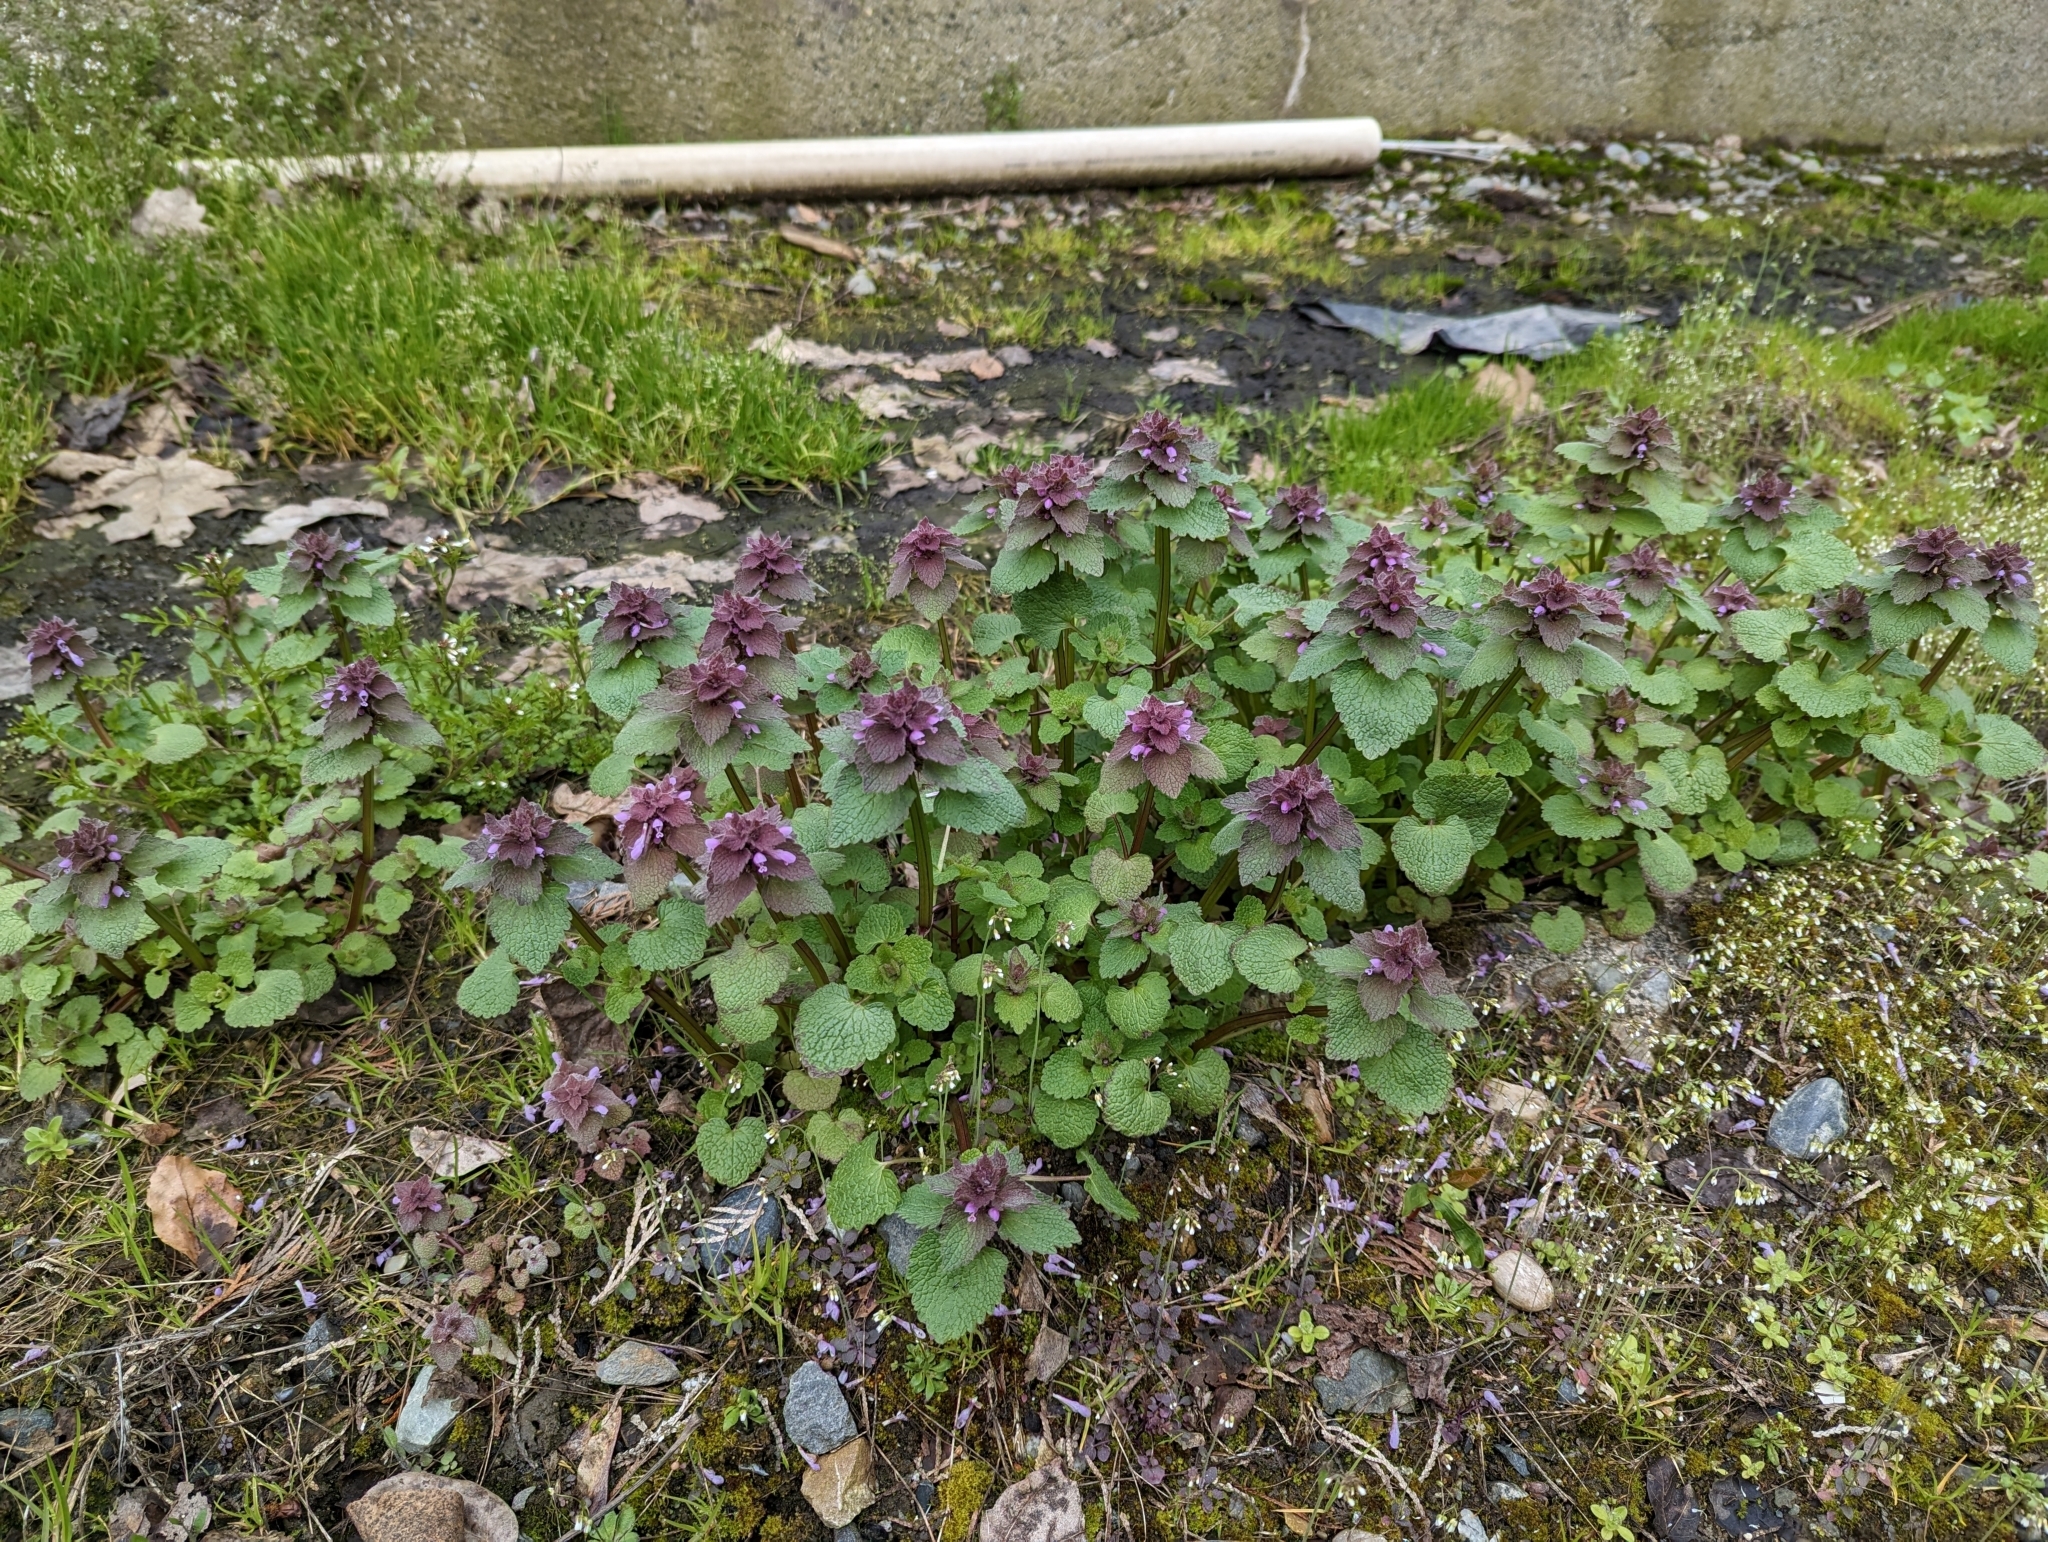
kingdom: Plantae
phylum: Tracheophyta
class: Magnoliopsida
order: Lamiales
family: Lamiaceae
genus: Lamium
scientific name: Lamium purpureum
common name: Red dead-nettle
